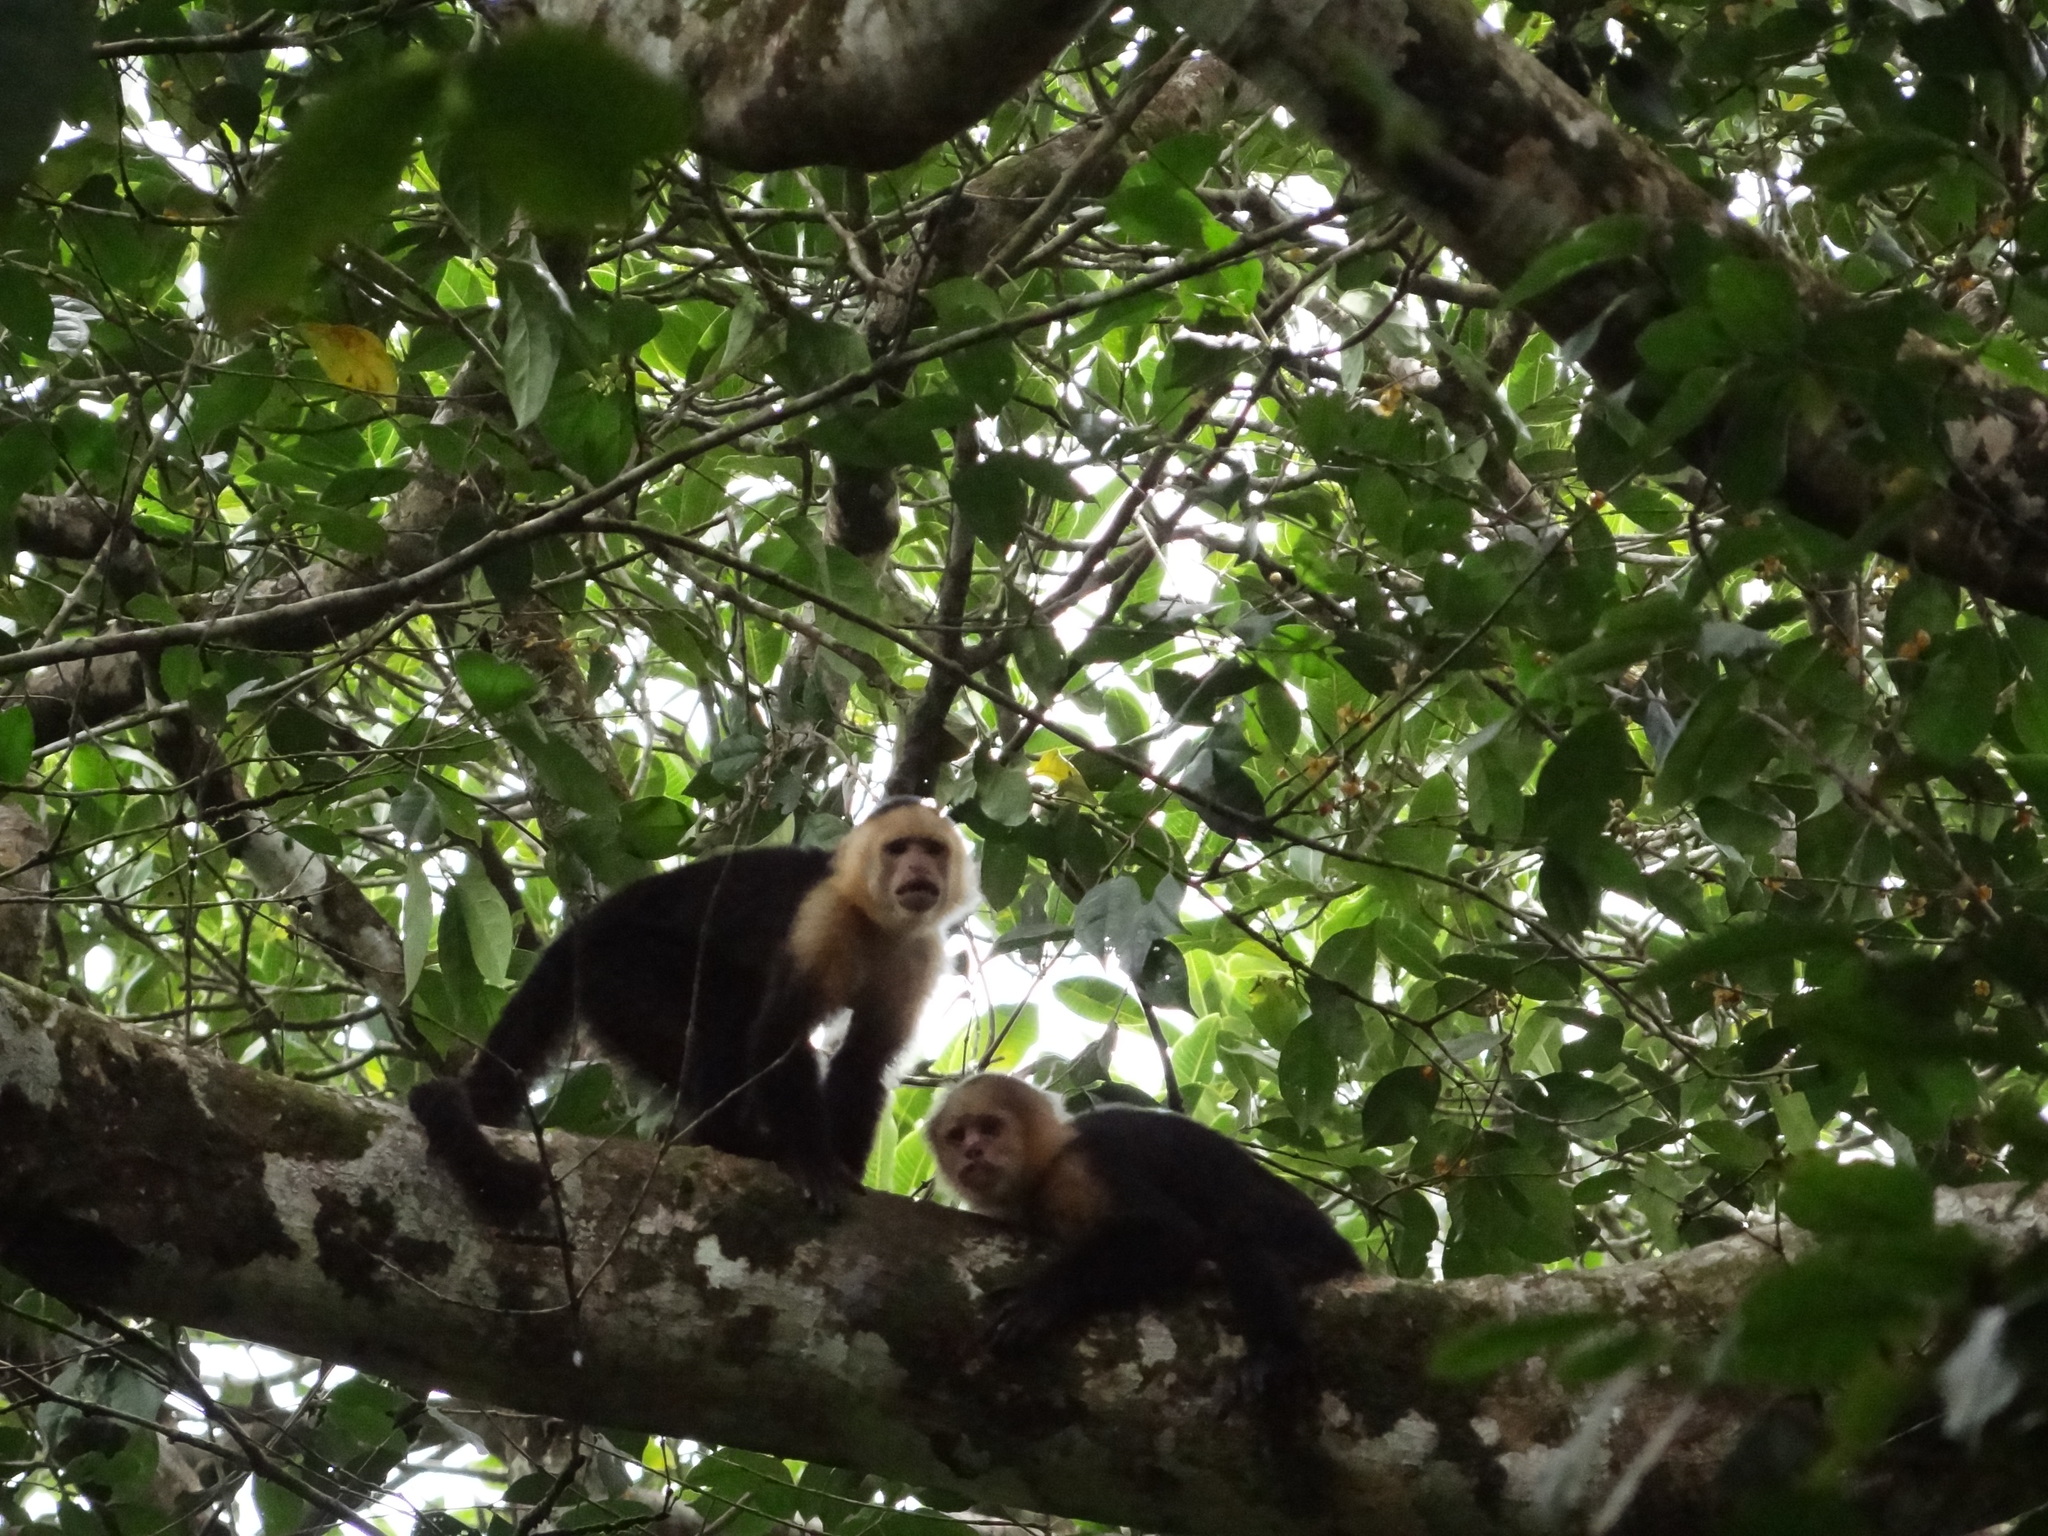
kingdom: Animalia
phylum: Chordata
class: Mammalia
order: Primates
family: Cebidae
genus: Cebus
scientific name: Cebus imitator
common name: Panamanian white-faced capuchin
